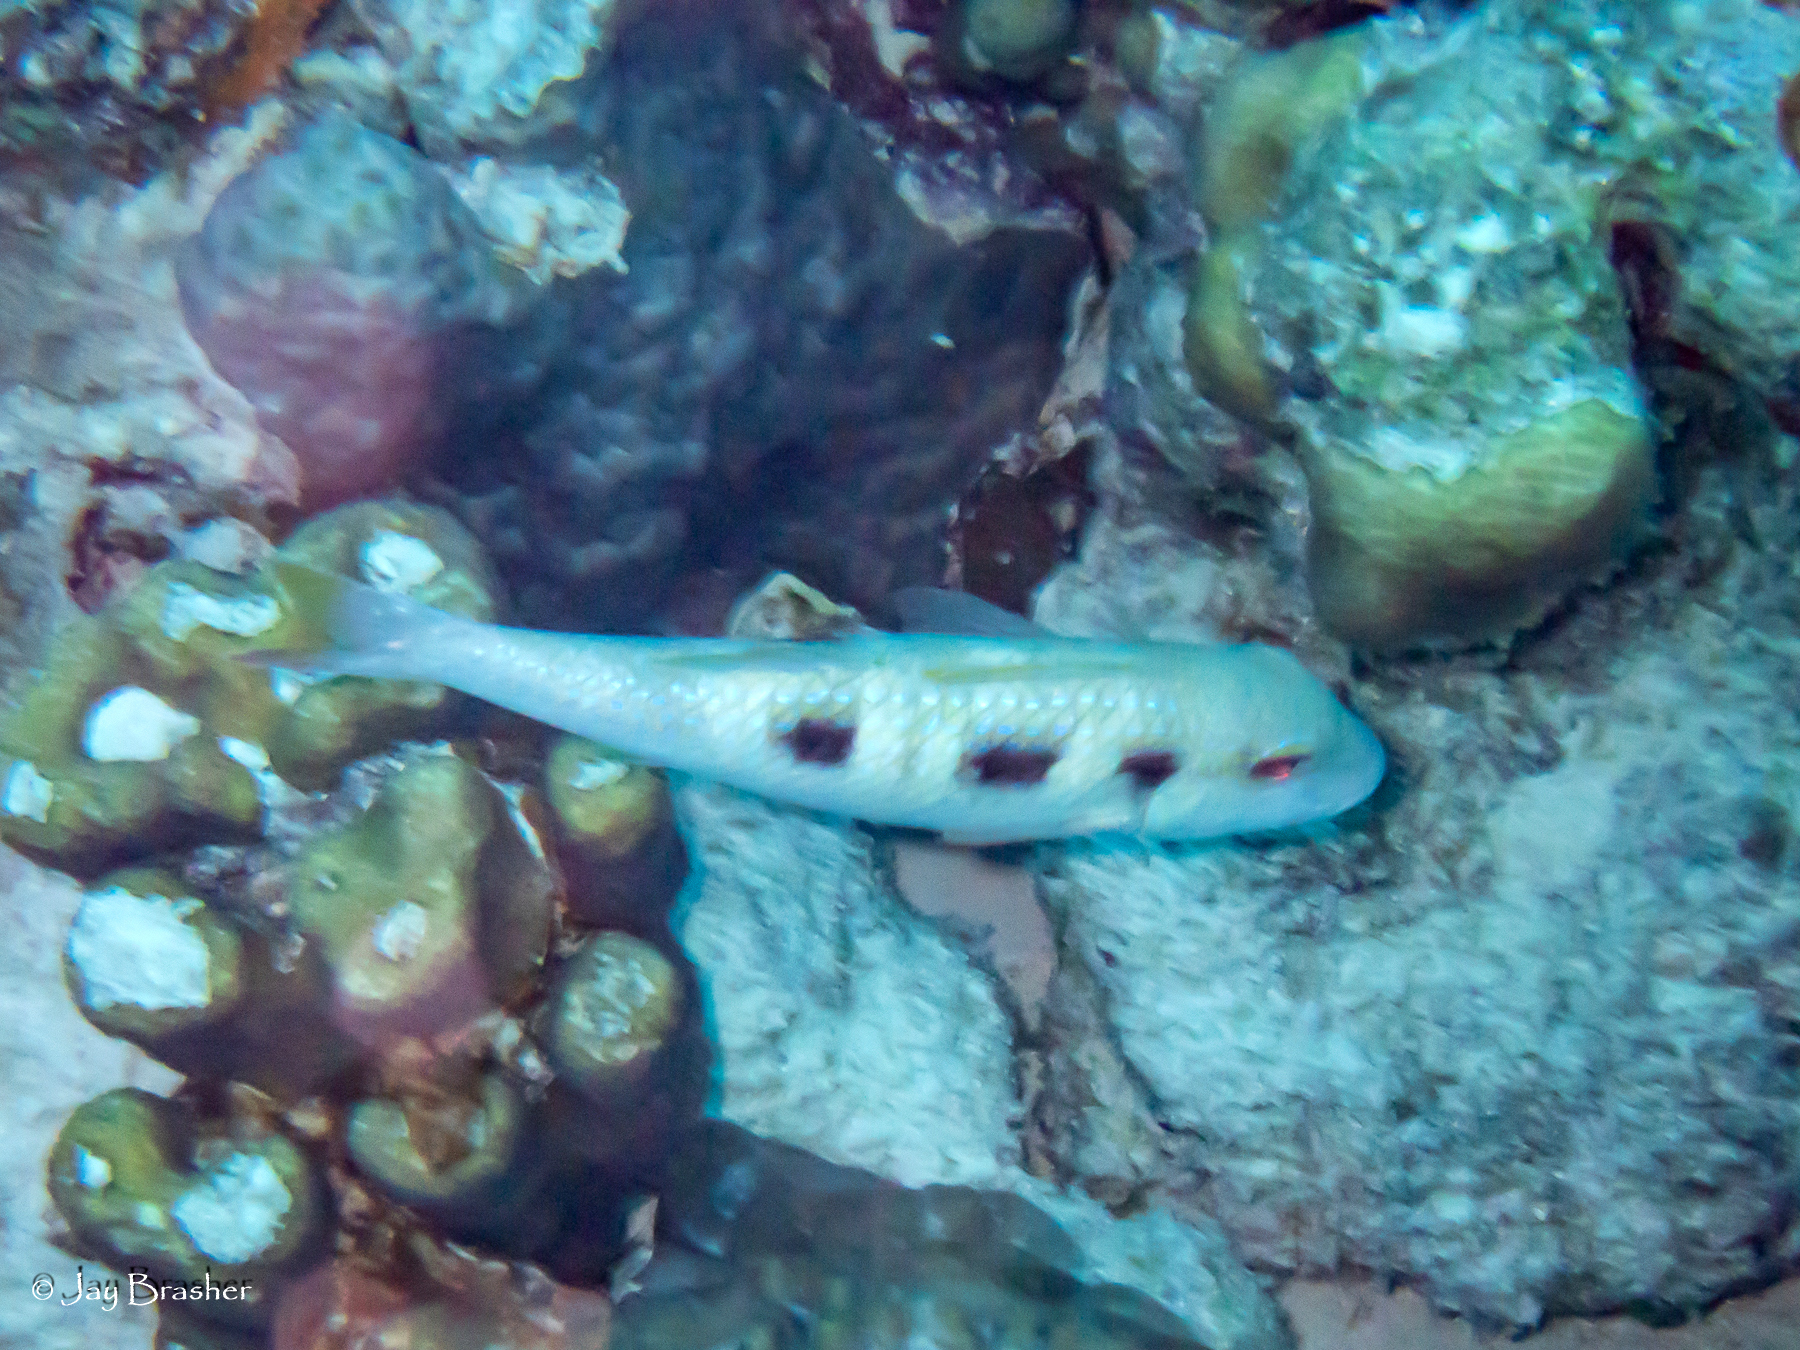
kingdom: Animalia
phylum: Chordata
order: Perciformes
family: Mullidae
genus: Pseudupeneus
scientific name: Pseudupeneus maculatus
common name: Spotted goatfish
